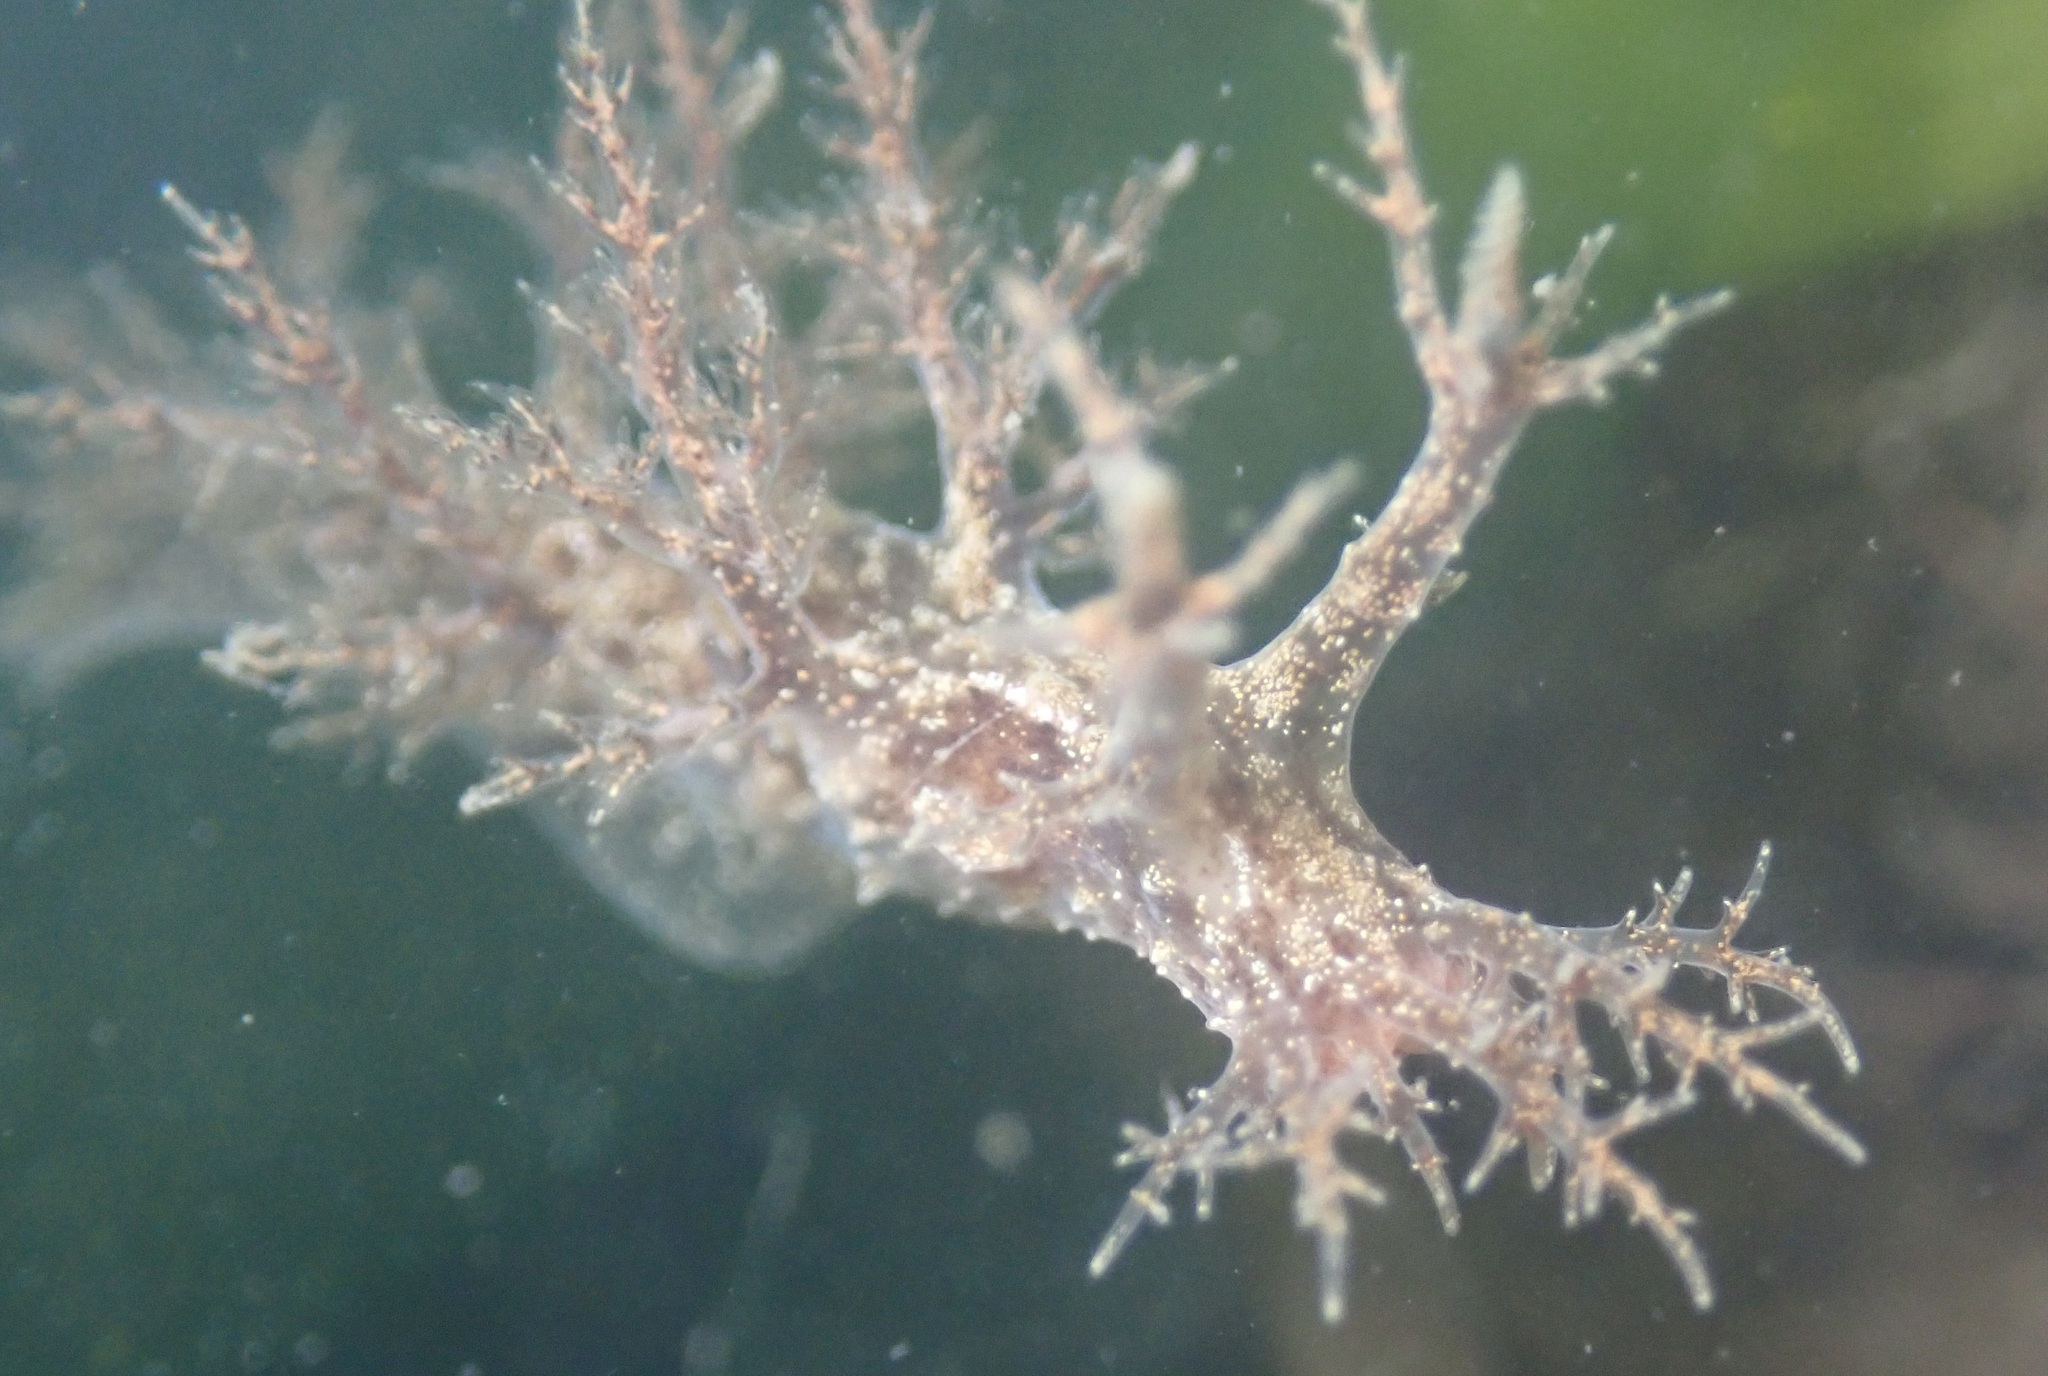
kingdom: Animalia
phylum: Mollusca
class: Gastropoda
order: Nudibranchia
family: Dendronotidae
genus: Dendronotus
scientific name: Dendronotus venustus
